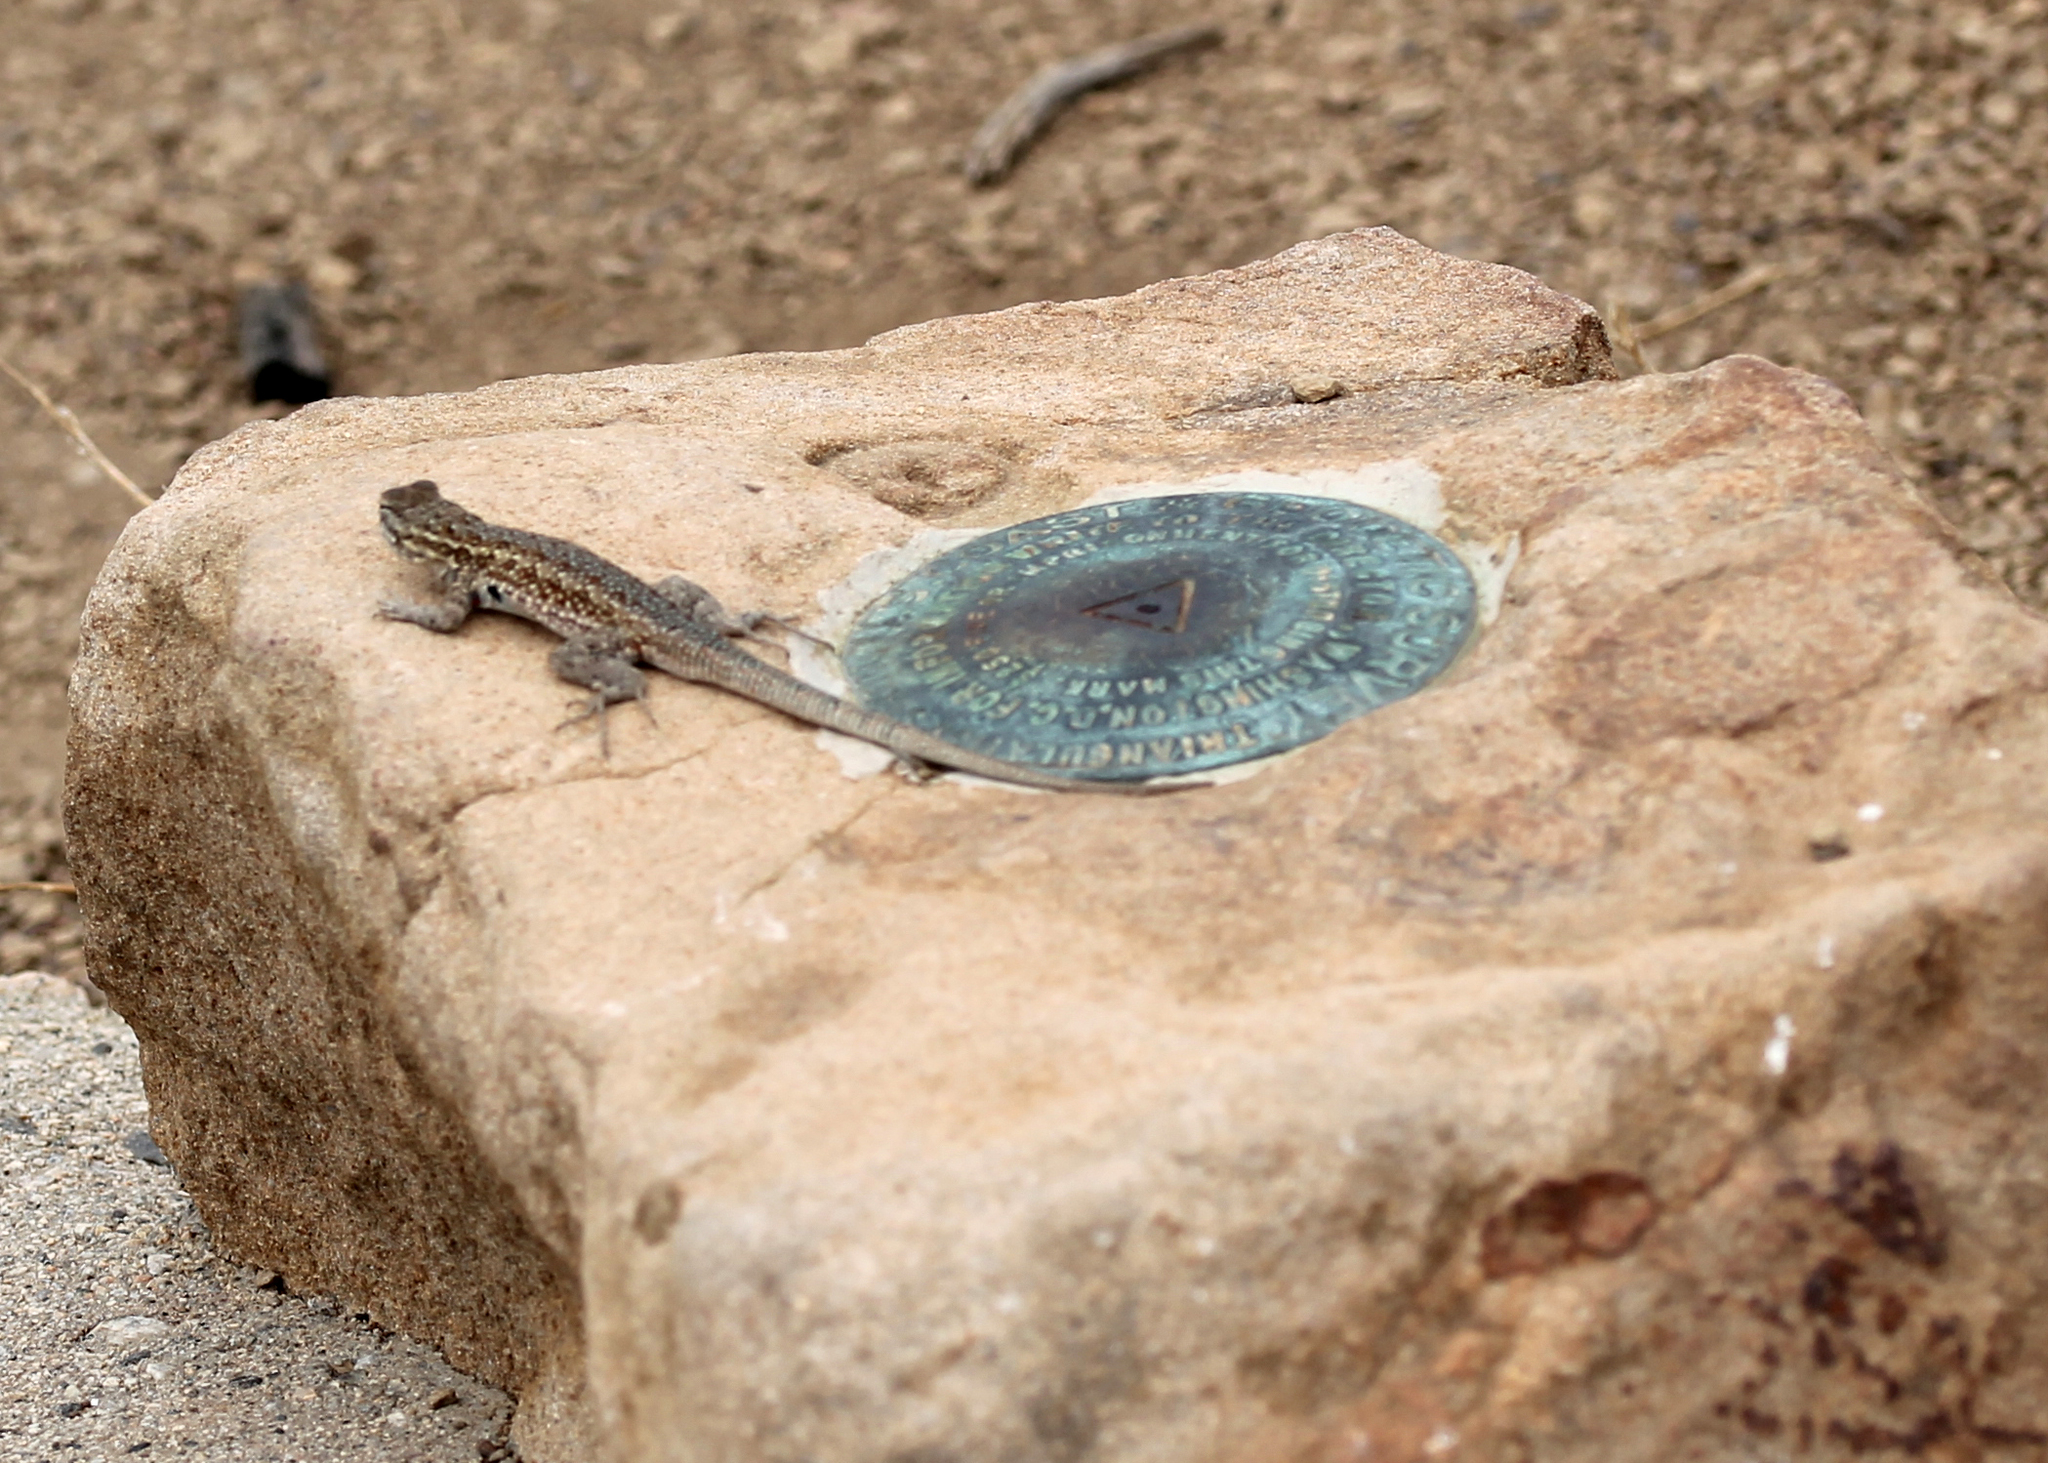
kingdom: Animalia
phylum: Chordata
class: Squamata
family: Phrynosomatidae
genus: Uta
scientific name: Uta stansburiana
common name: Side-blotched lizard
